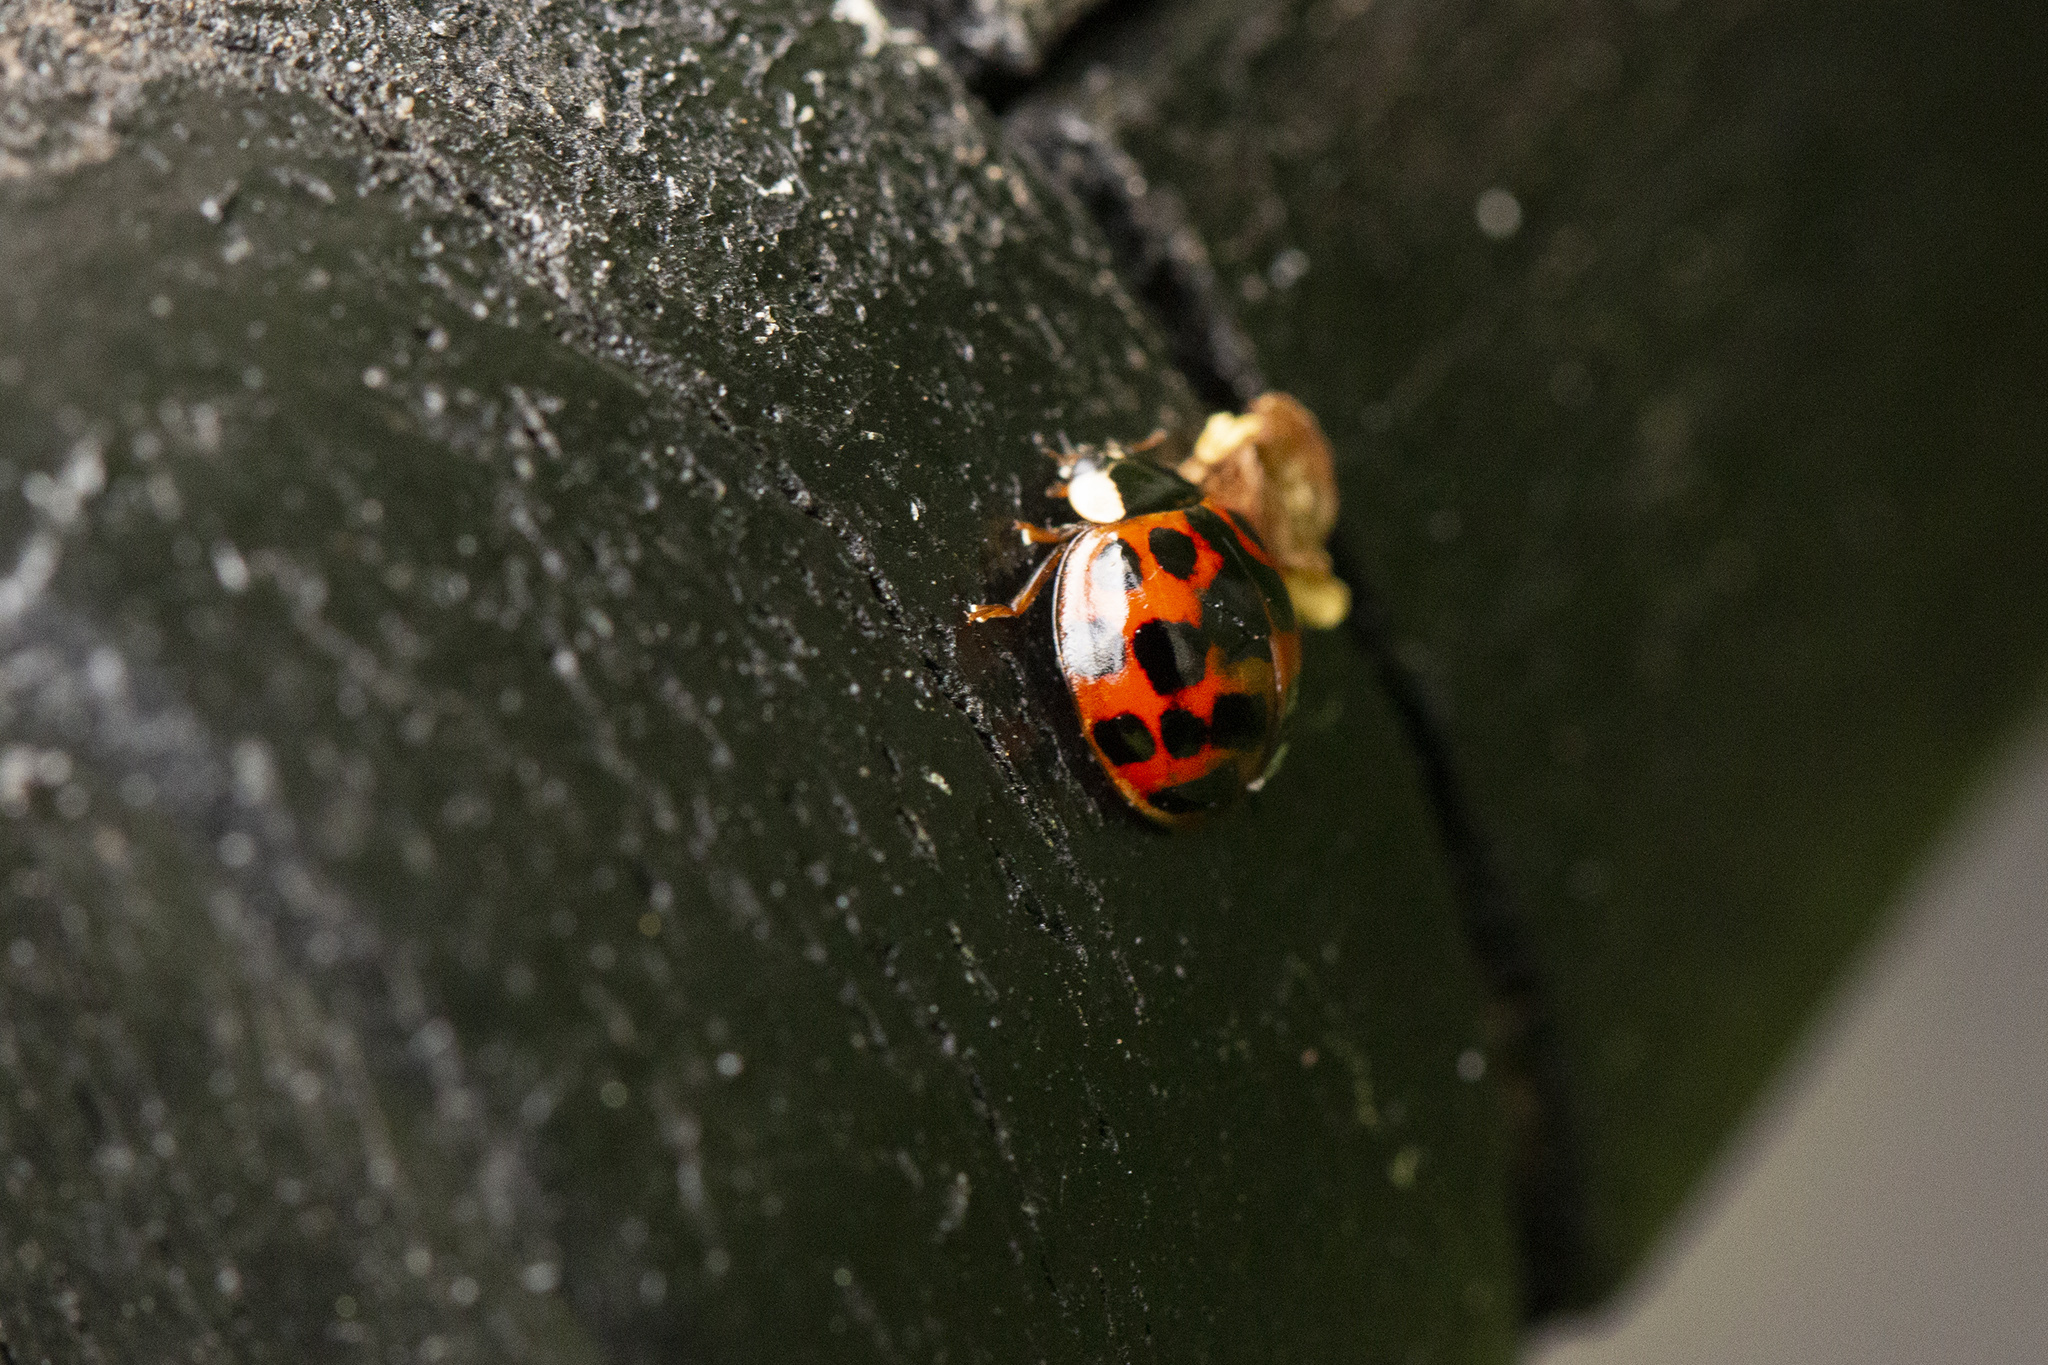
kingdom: Animalia
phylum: Arthropoda
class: Insecta
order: Coleoptera
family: Coccinellidae
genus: Harmonia
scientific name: Harmonia axyridis
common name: Harlequin ladybird
